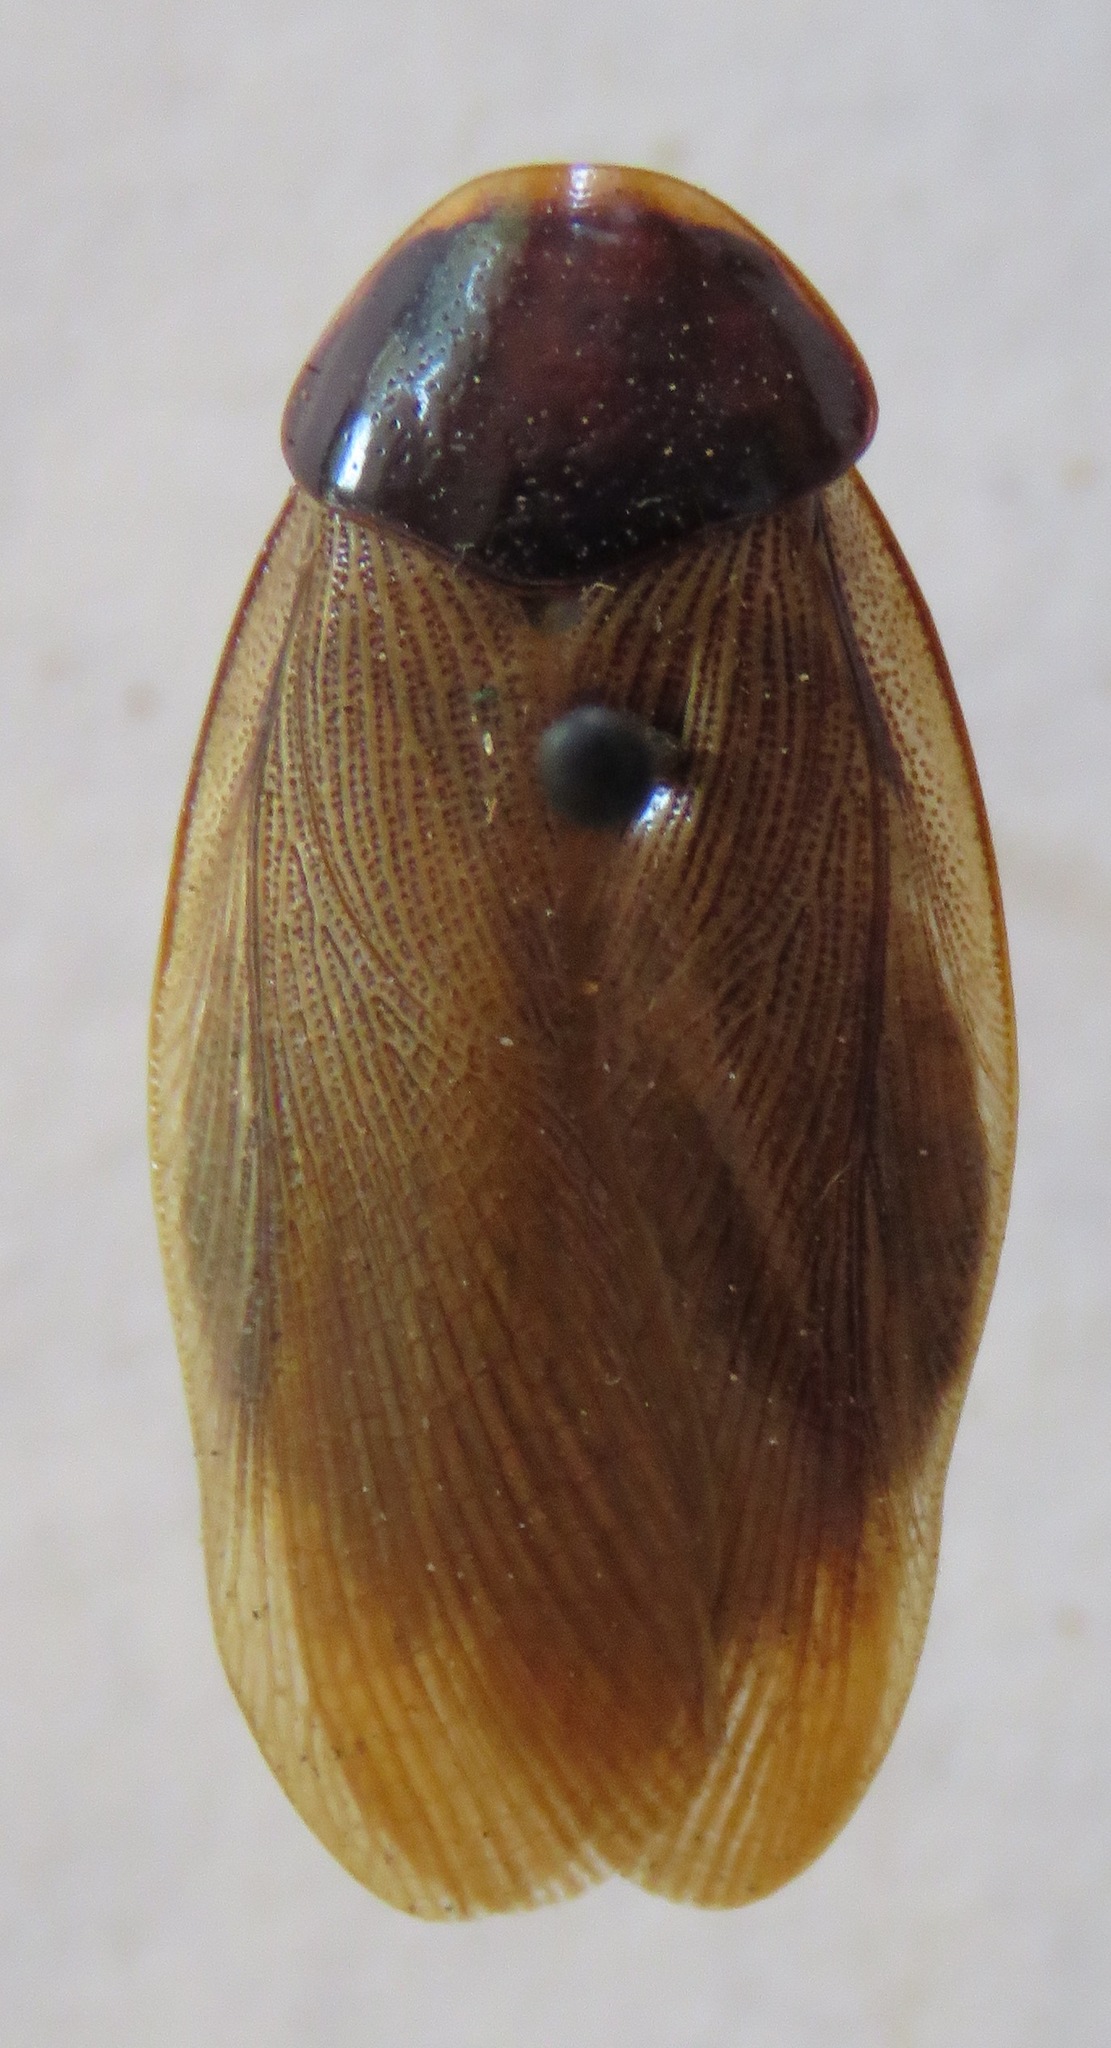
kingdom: Animalia
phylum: Arthropoda
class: Insecta
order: Blattodea
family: Blaberidae
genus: Pycnoscelus
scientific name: Pycnoscelus surinamensis
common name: Surinam cockroach
